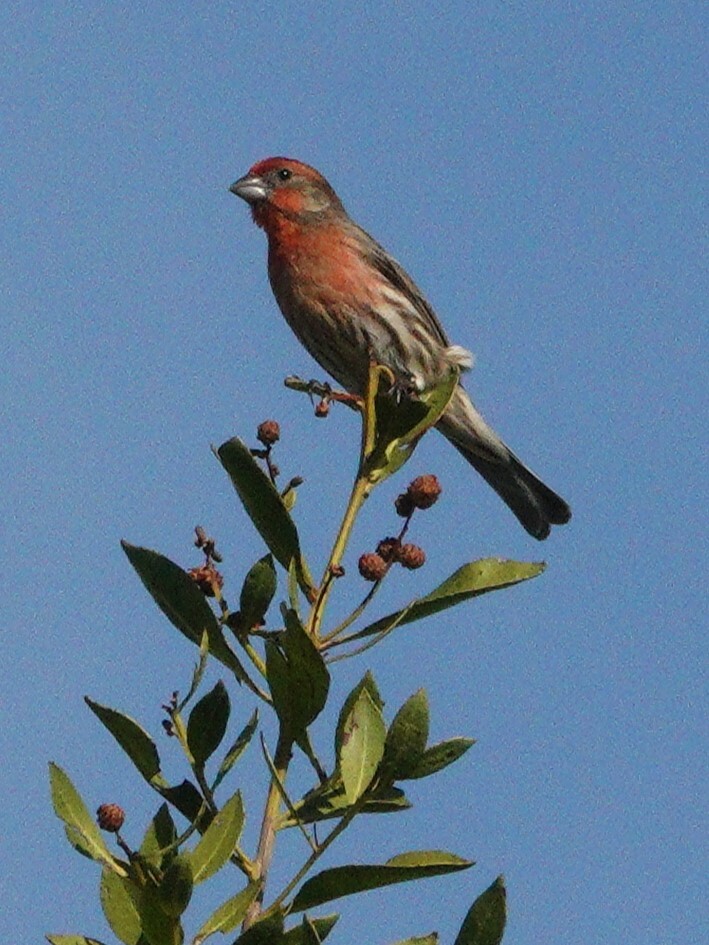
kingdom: Animalia
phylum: Chordata
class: Aves
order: Passeriformes
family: Fringillidae
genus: Haemorhous
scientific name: Haemorhous mexicanus
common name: House finch
